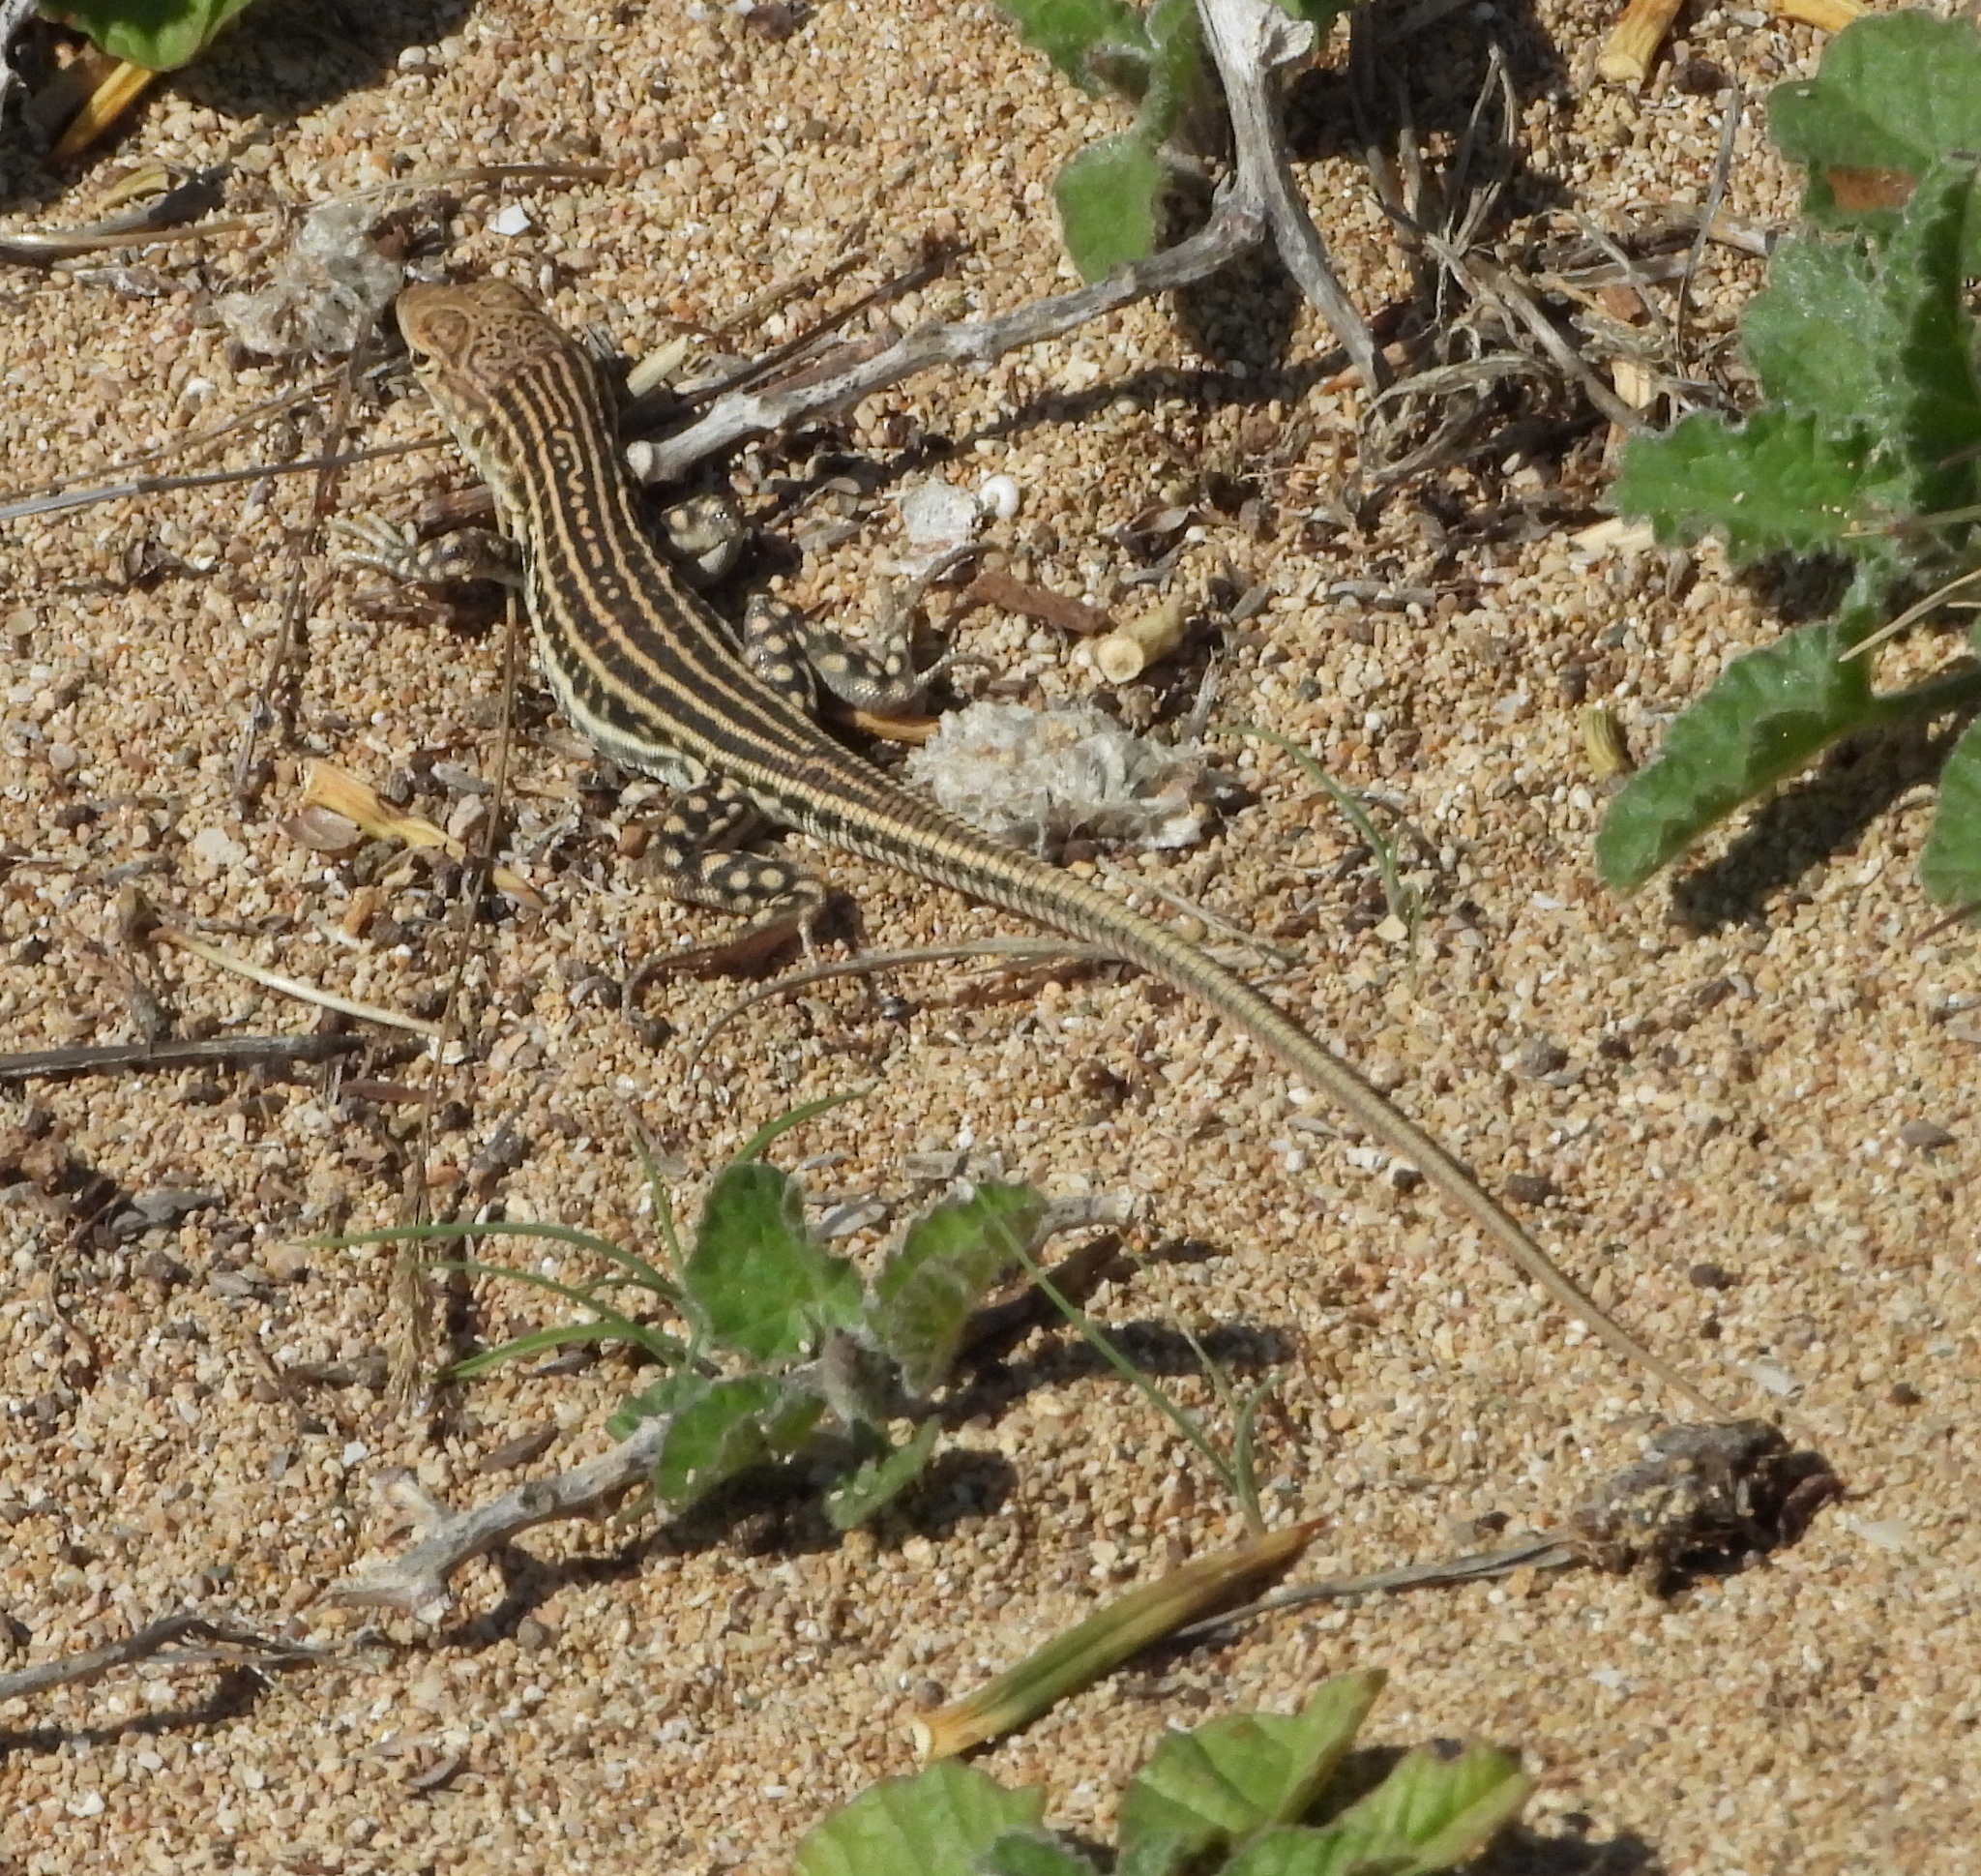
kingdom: Animalia
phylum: Chordata
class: Squamata
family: Lacertidae
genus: Acanthodactylus
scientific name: Acanthodactylus schreiberi
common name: Schreiber's fringe-fingered lizard
